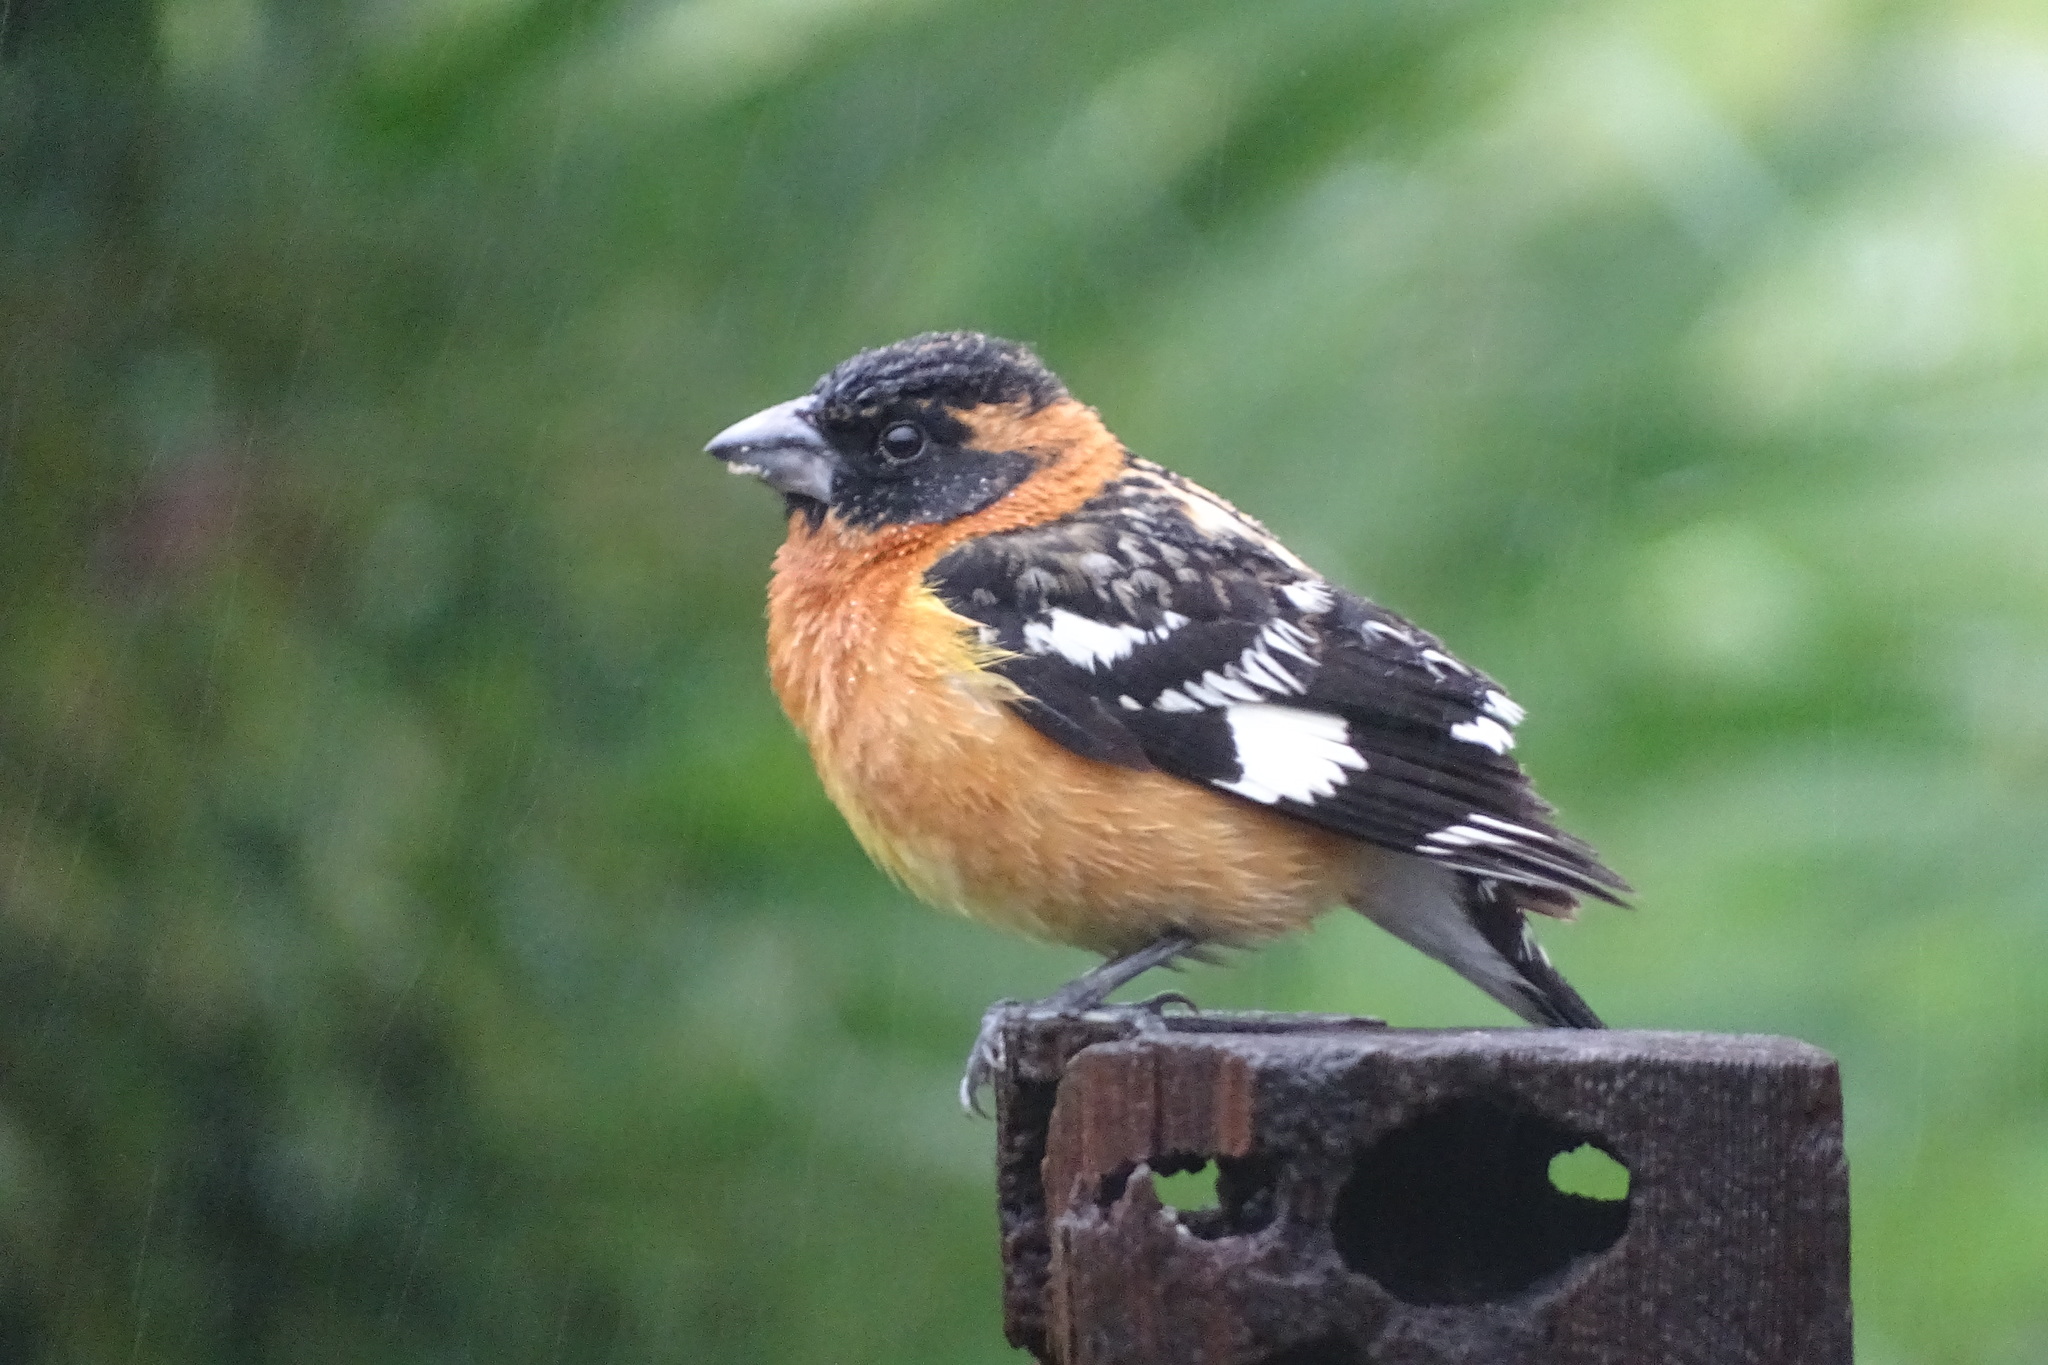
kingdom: Animalia
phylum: Chordata
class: Aves
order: Passeriformes
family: Cardinalidae
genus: Pheucticus
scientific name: Pheucticus melanocephalus
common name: Black-headed grosbeak
